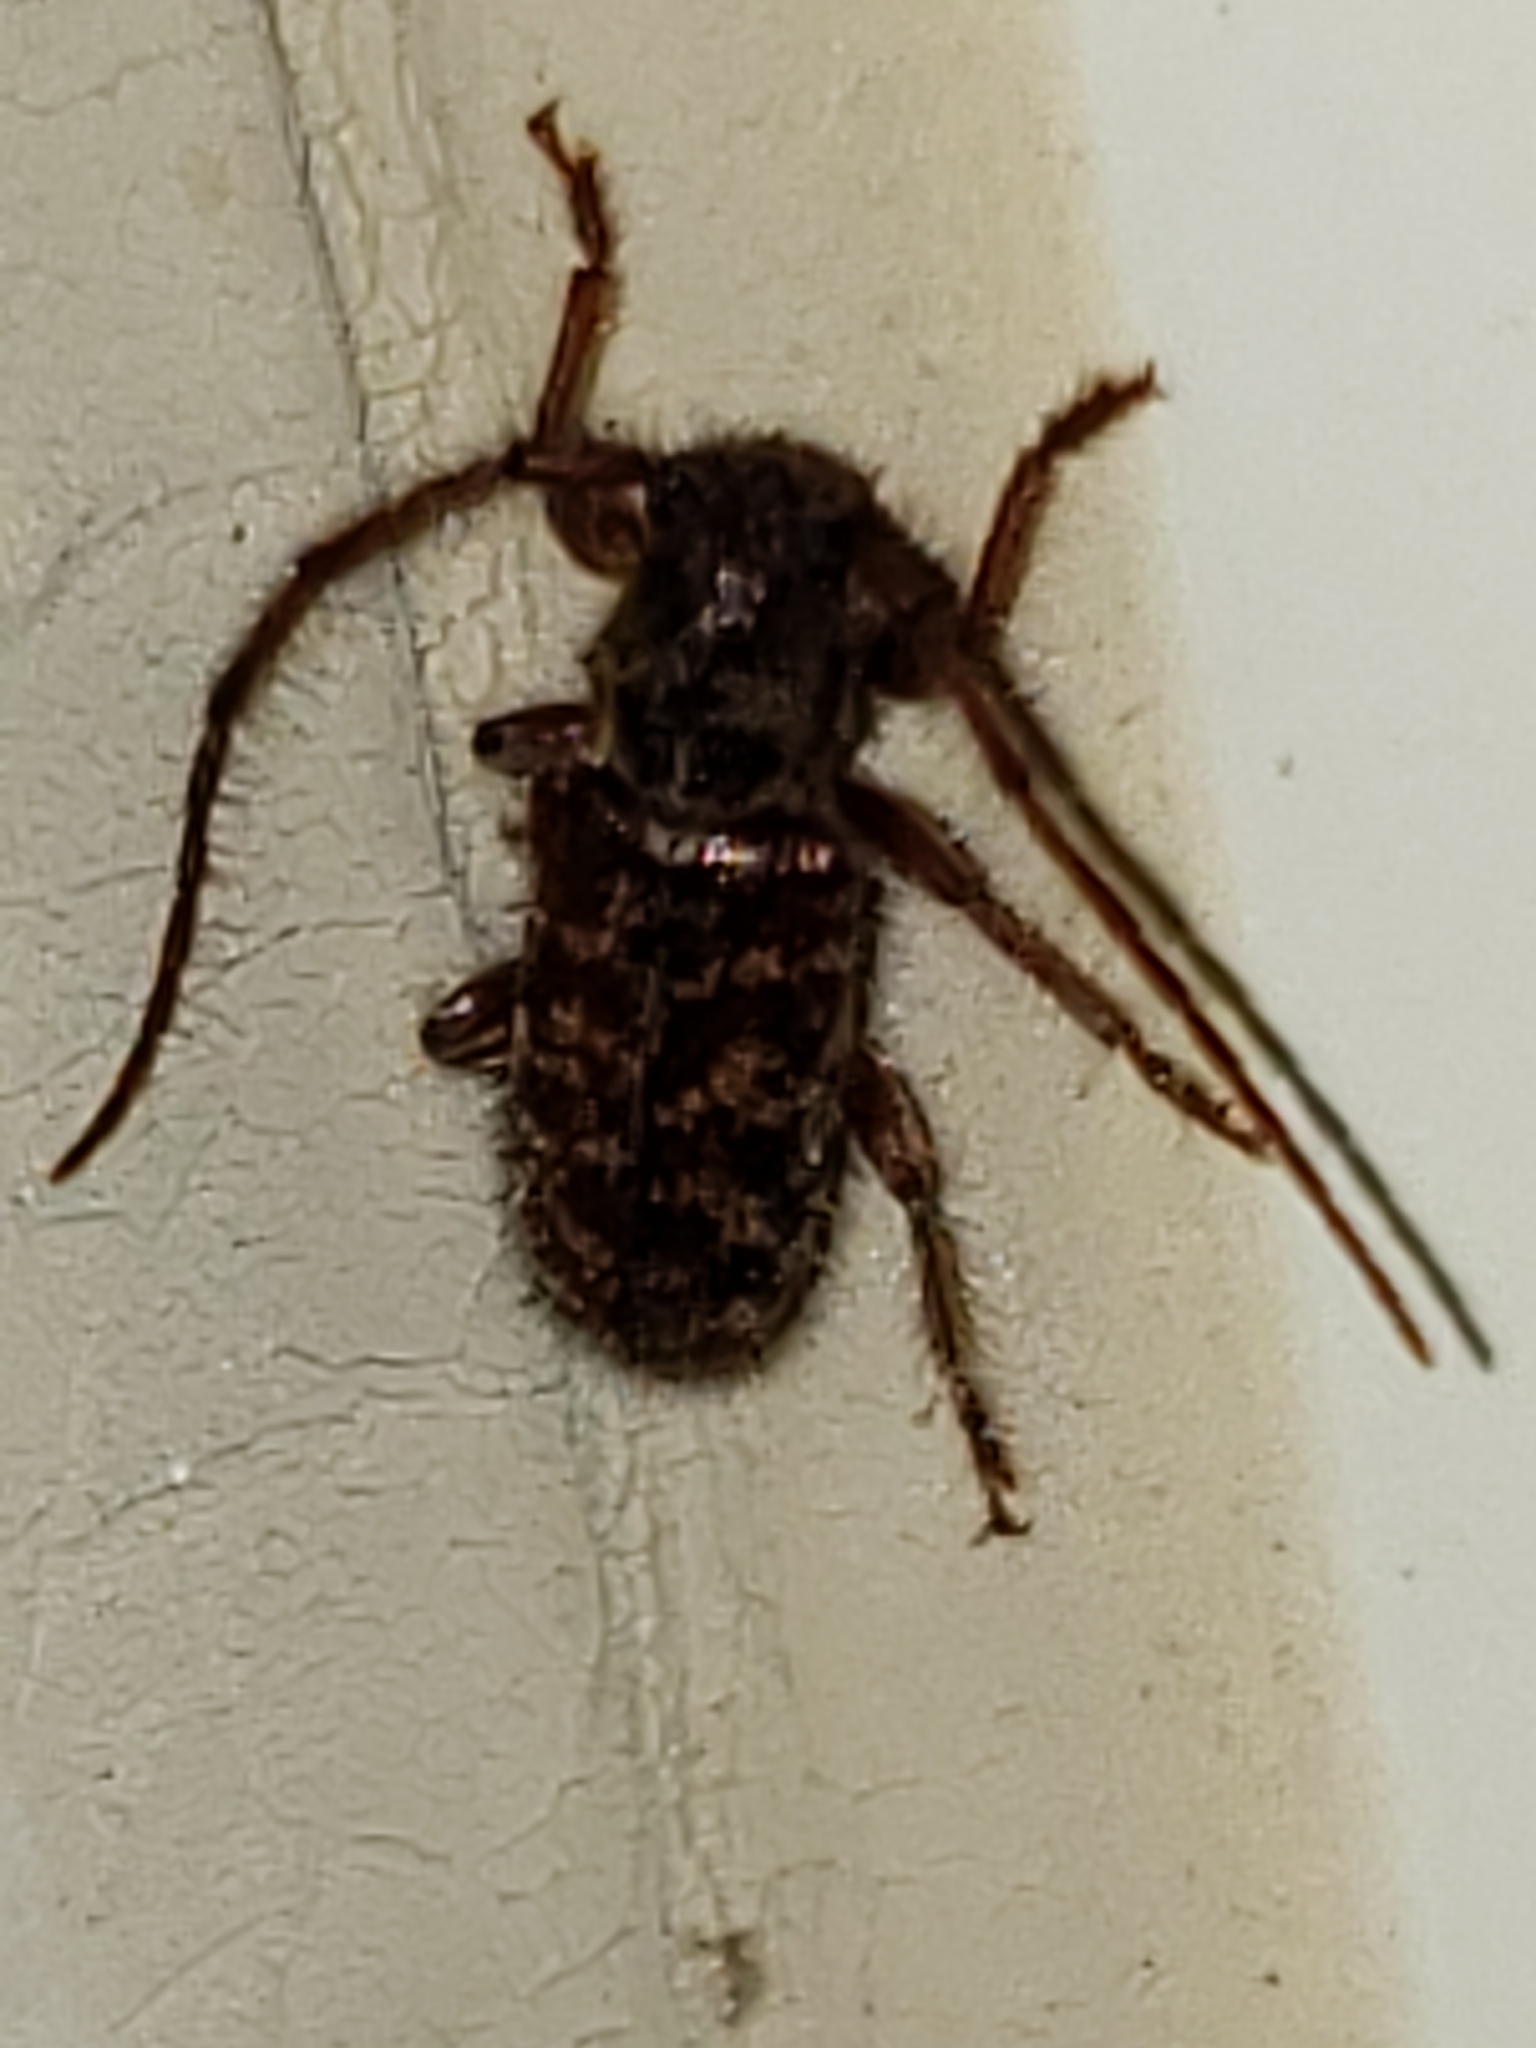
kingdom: Animalia
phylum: Arthropoda
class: Insecta
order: Coleoptera
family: Cerambycidae
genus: Eupogonius
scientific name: Eupogonius tomentosus
